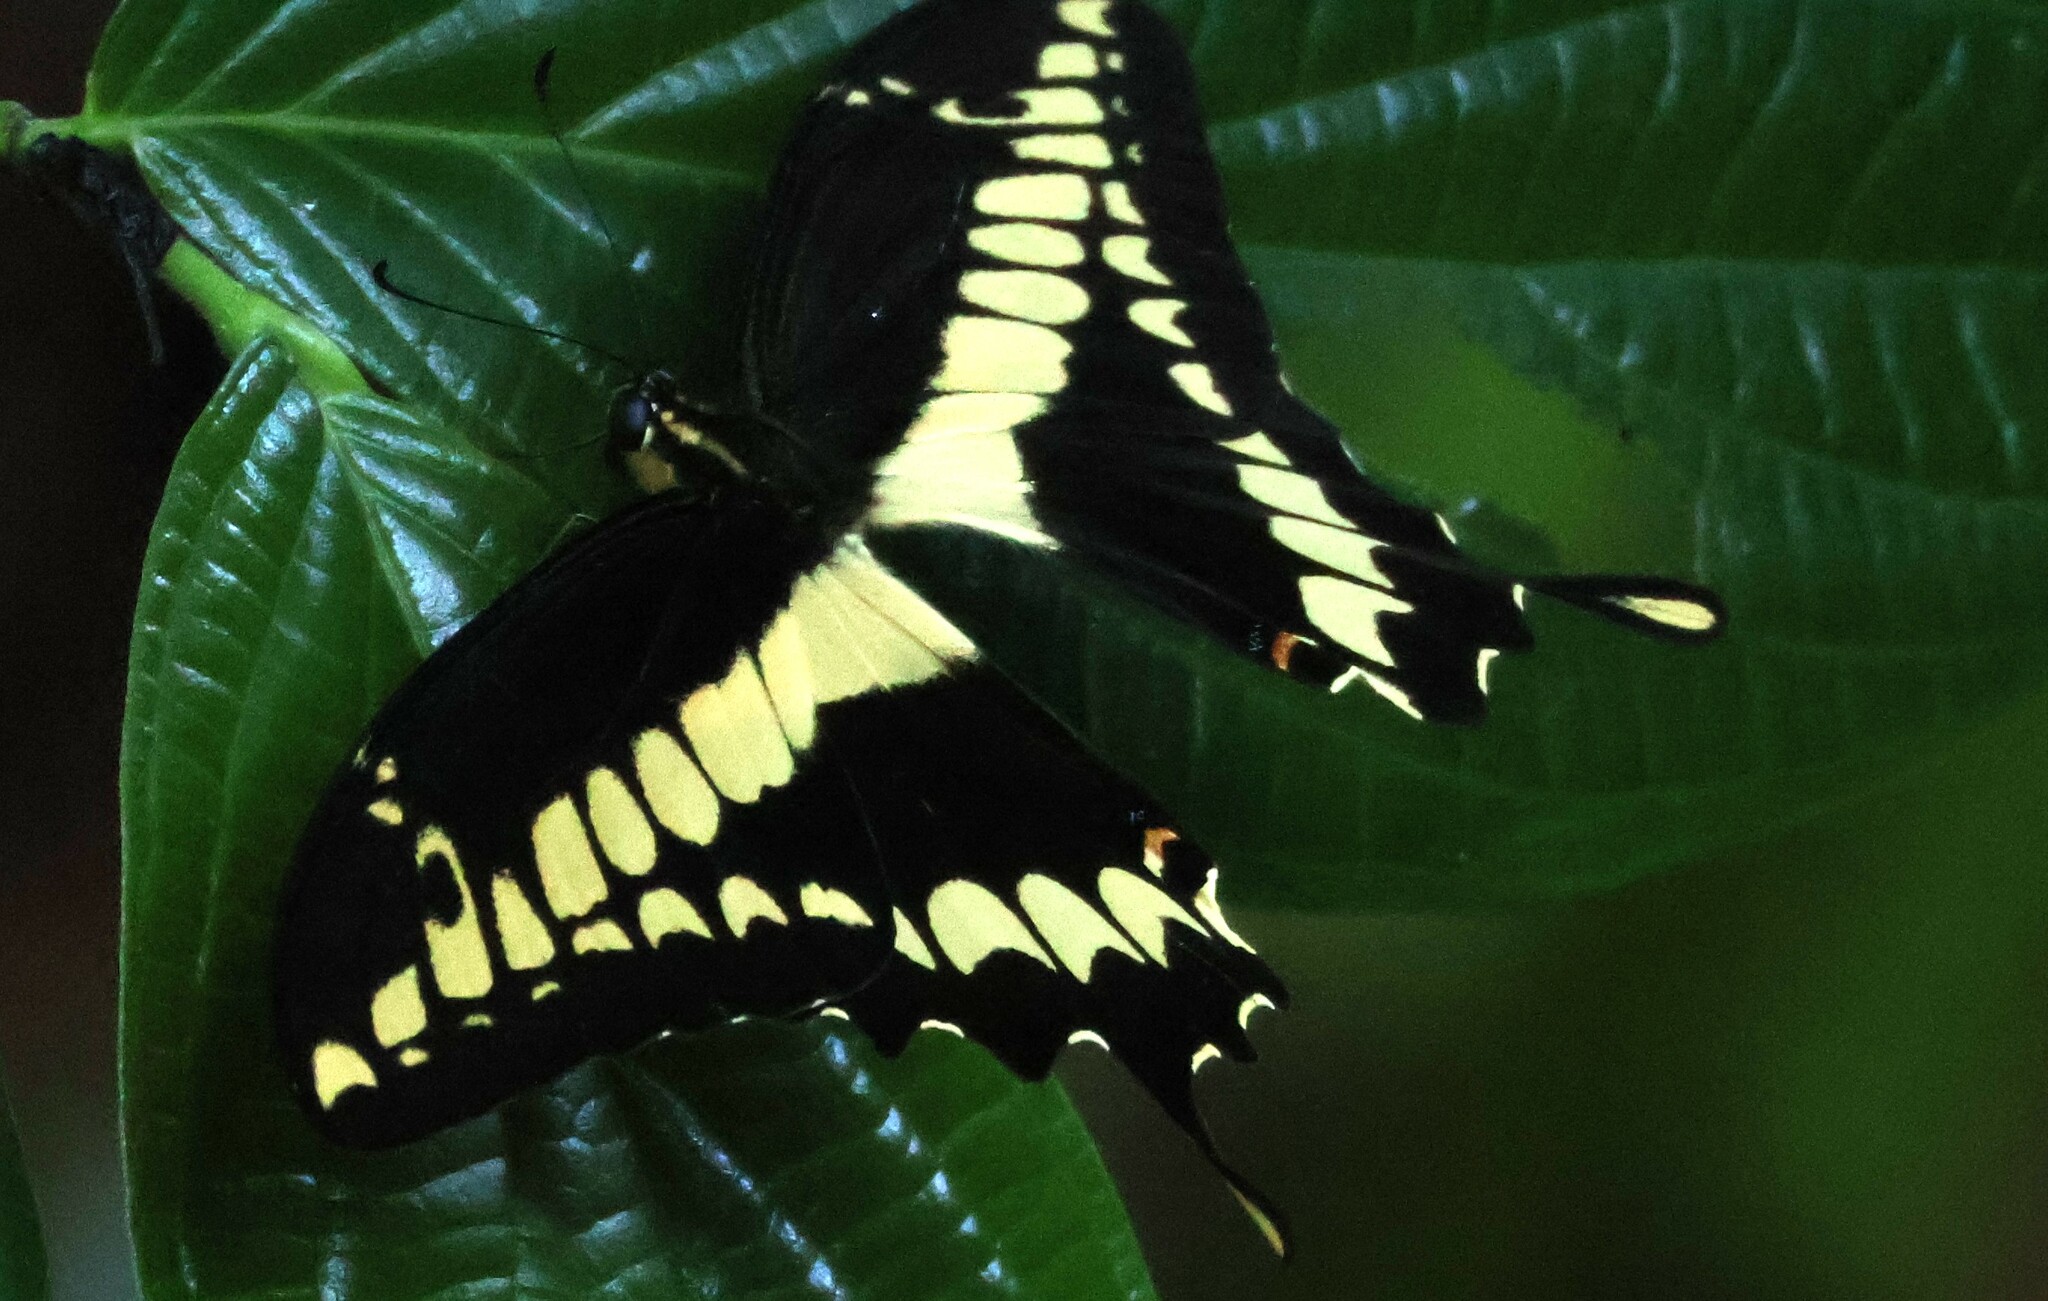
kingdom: Animalia
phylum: Arthropoda
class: Insecta
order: Lepidoptera
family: Papilionidae
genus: Papilio
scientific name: Papilio thoas
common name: King swallowtail
